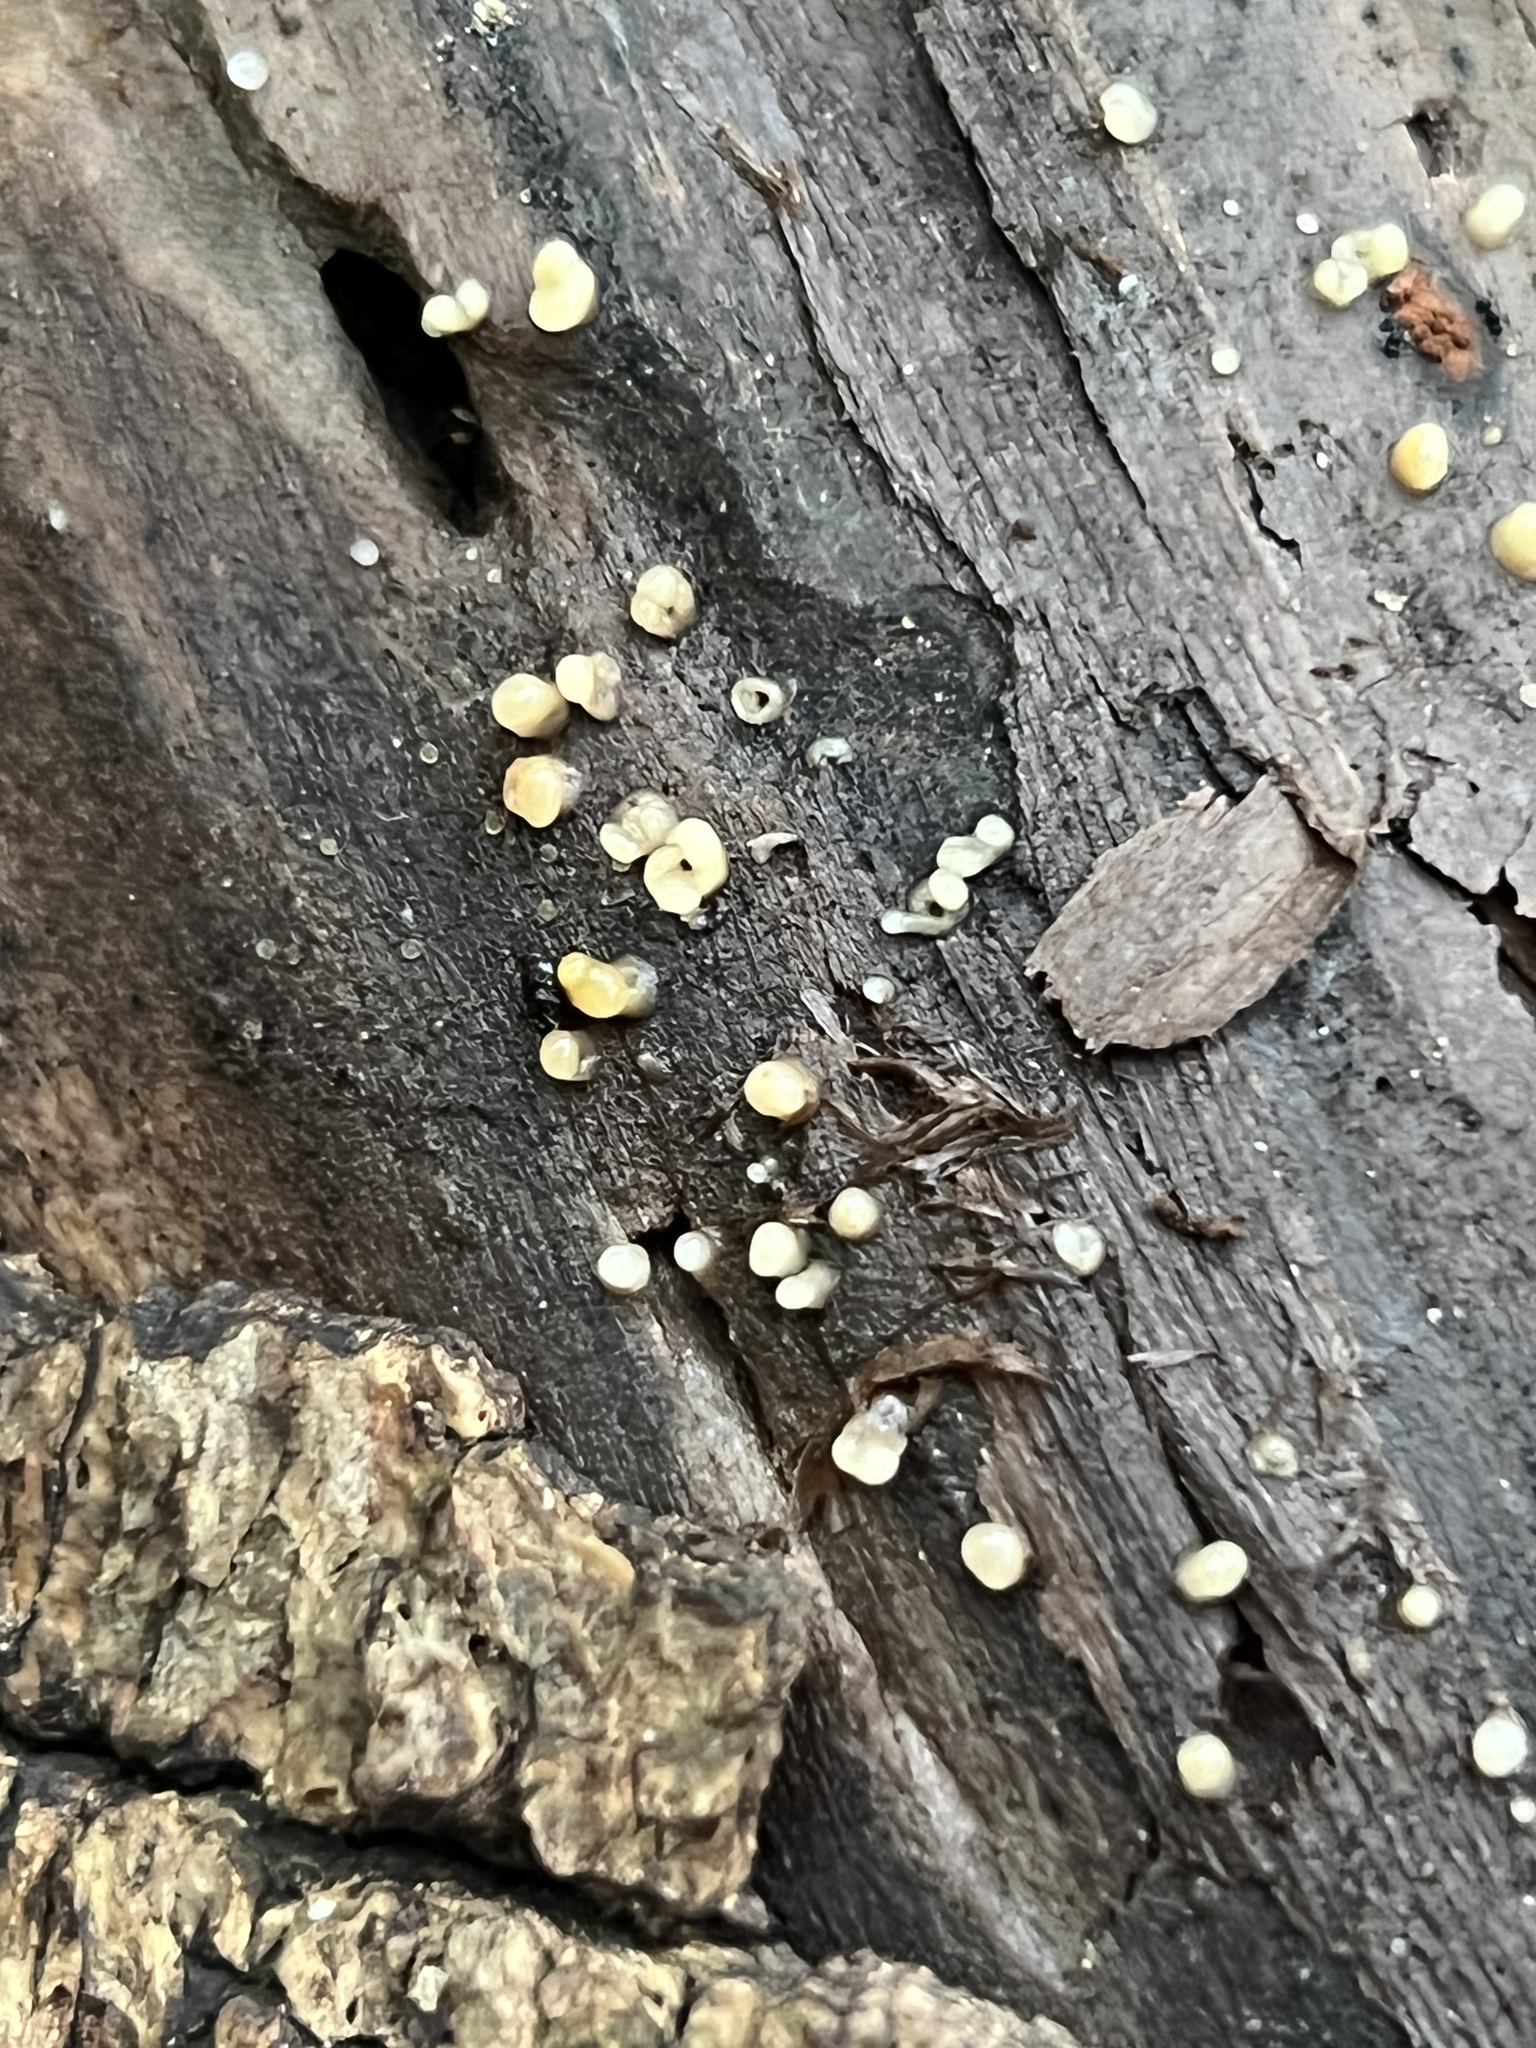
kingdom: Fungi
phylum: Basidiomycota
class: Atractiellomycetes
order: Atractiellales
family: Phleogenaceae
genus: Helicogloea
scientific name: Helicogloea compressa
